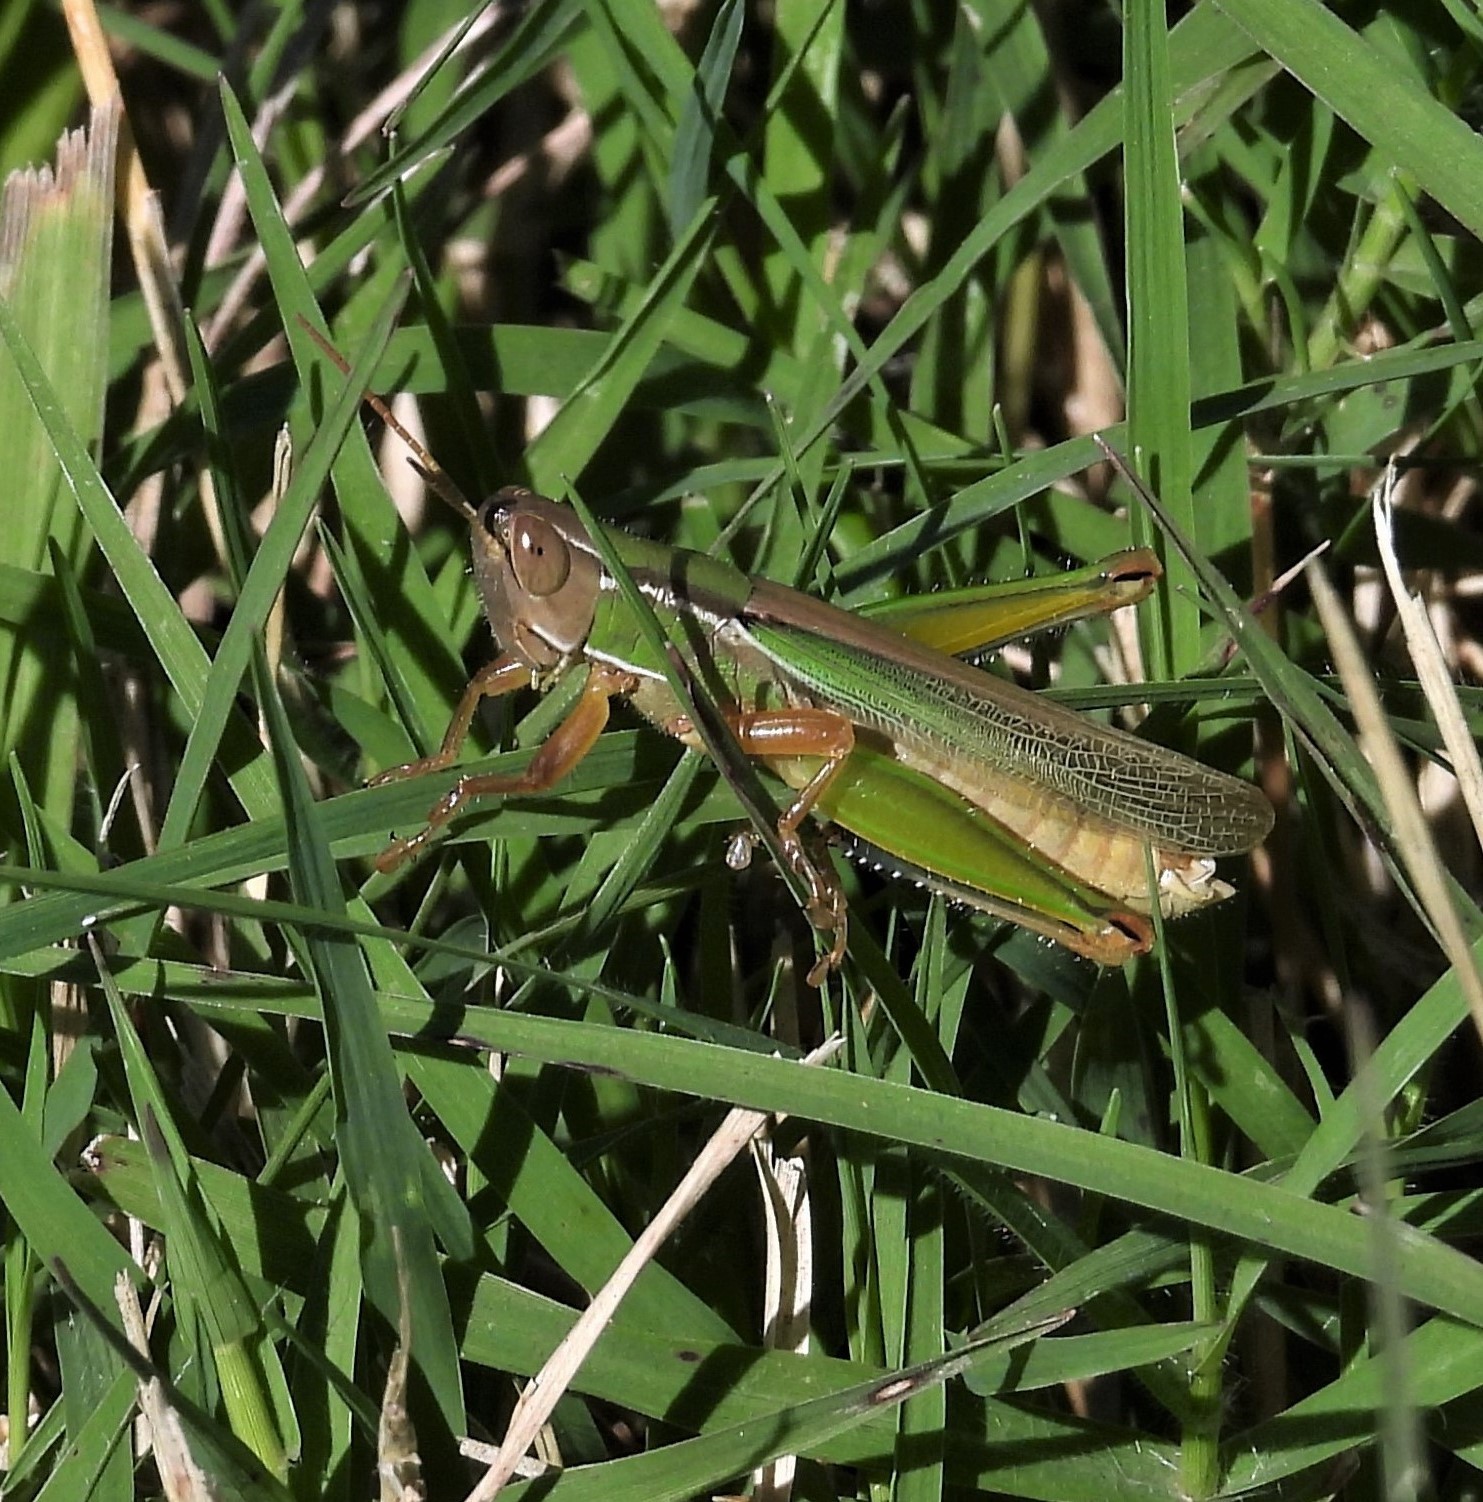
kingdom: Animalia
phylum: Arthropoda
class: Insecta
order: Orthoptera
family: Acrididae
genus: Aleuas
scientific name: Aleuas lineatus
